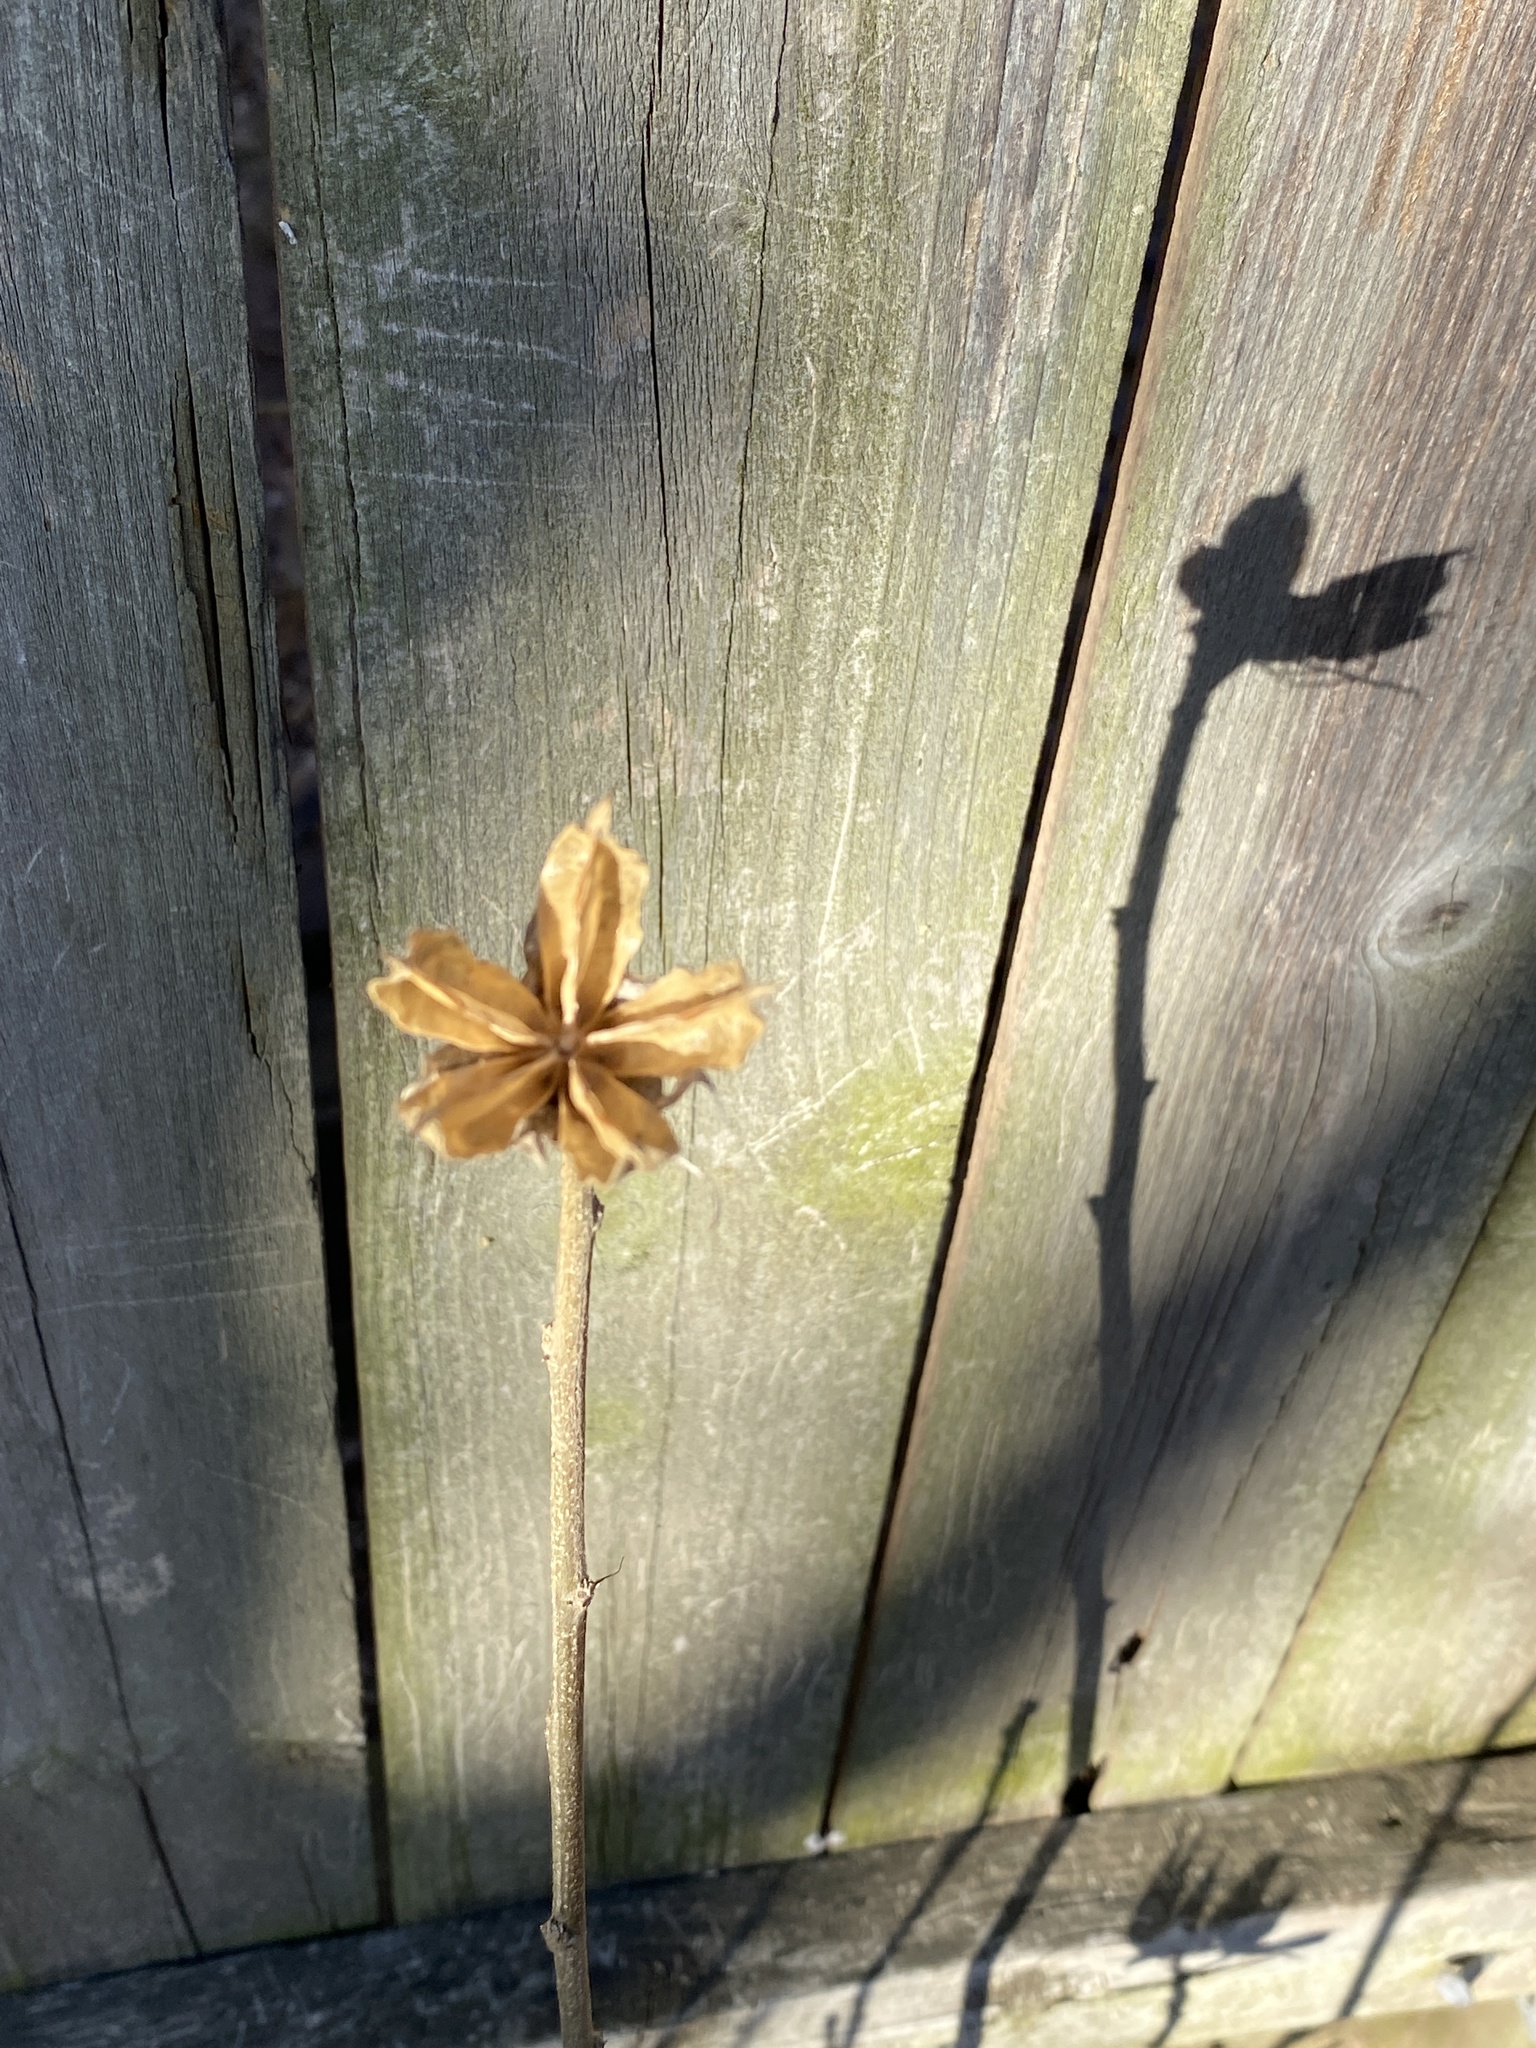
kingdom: Plantae
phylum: Tracheophyta
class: Magnoliopsida
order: Malvales
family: Malvaceae
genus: Hibiscus
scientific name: Hibiscus syriacus
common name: Syrian ketmia
